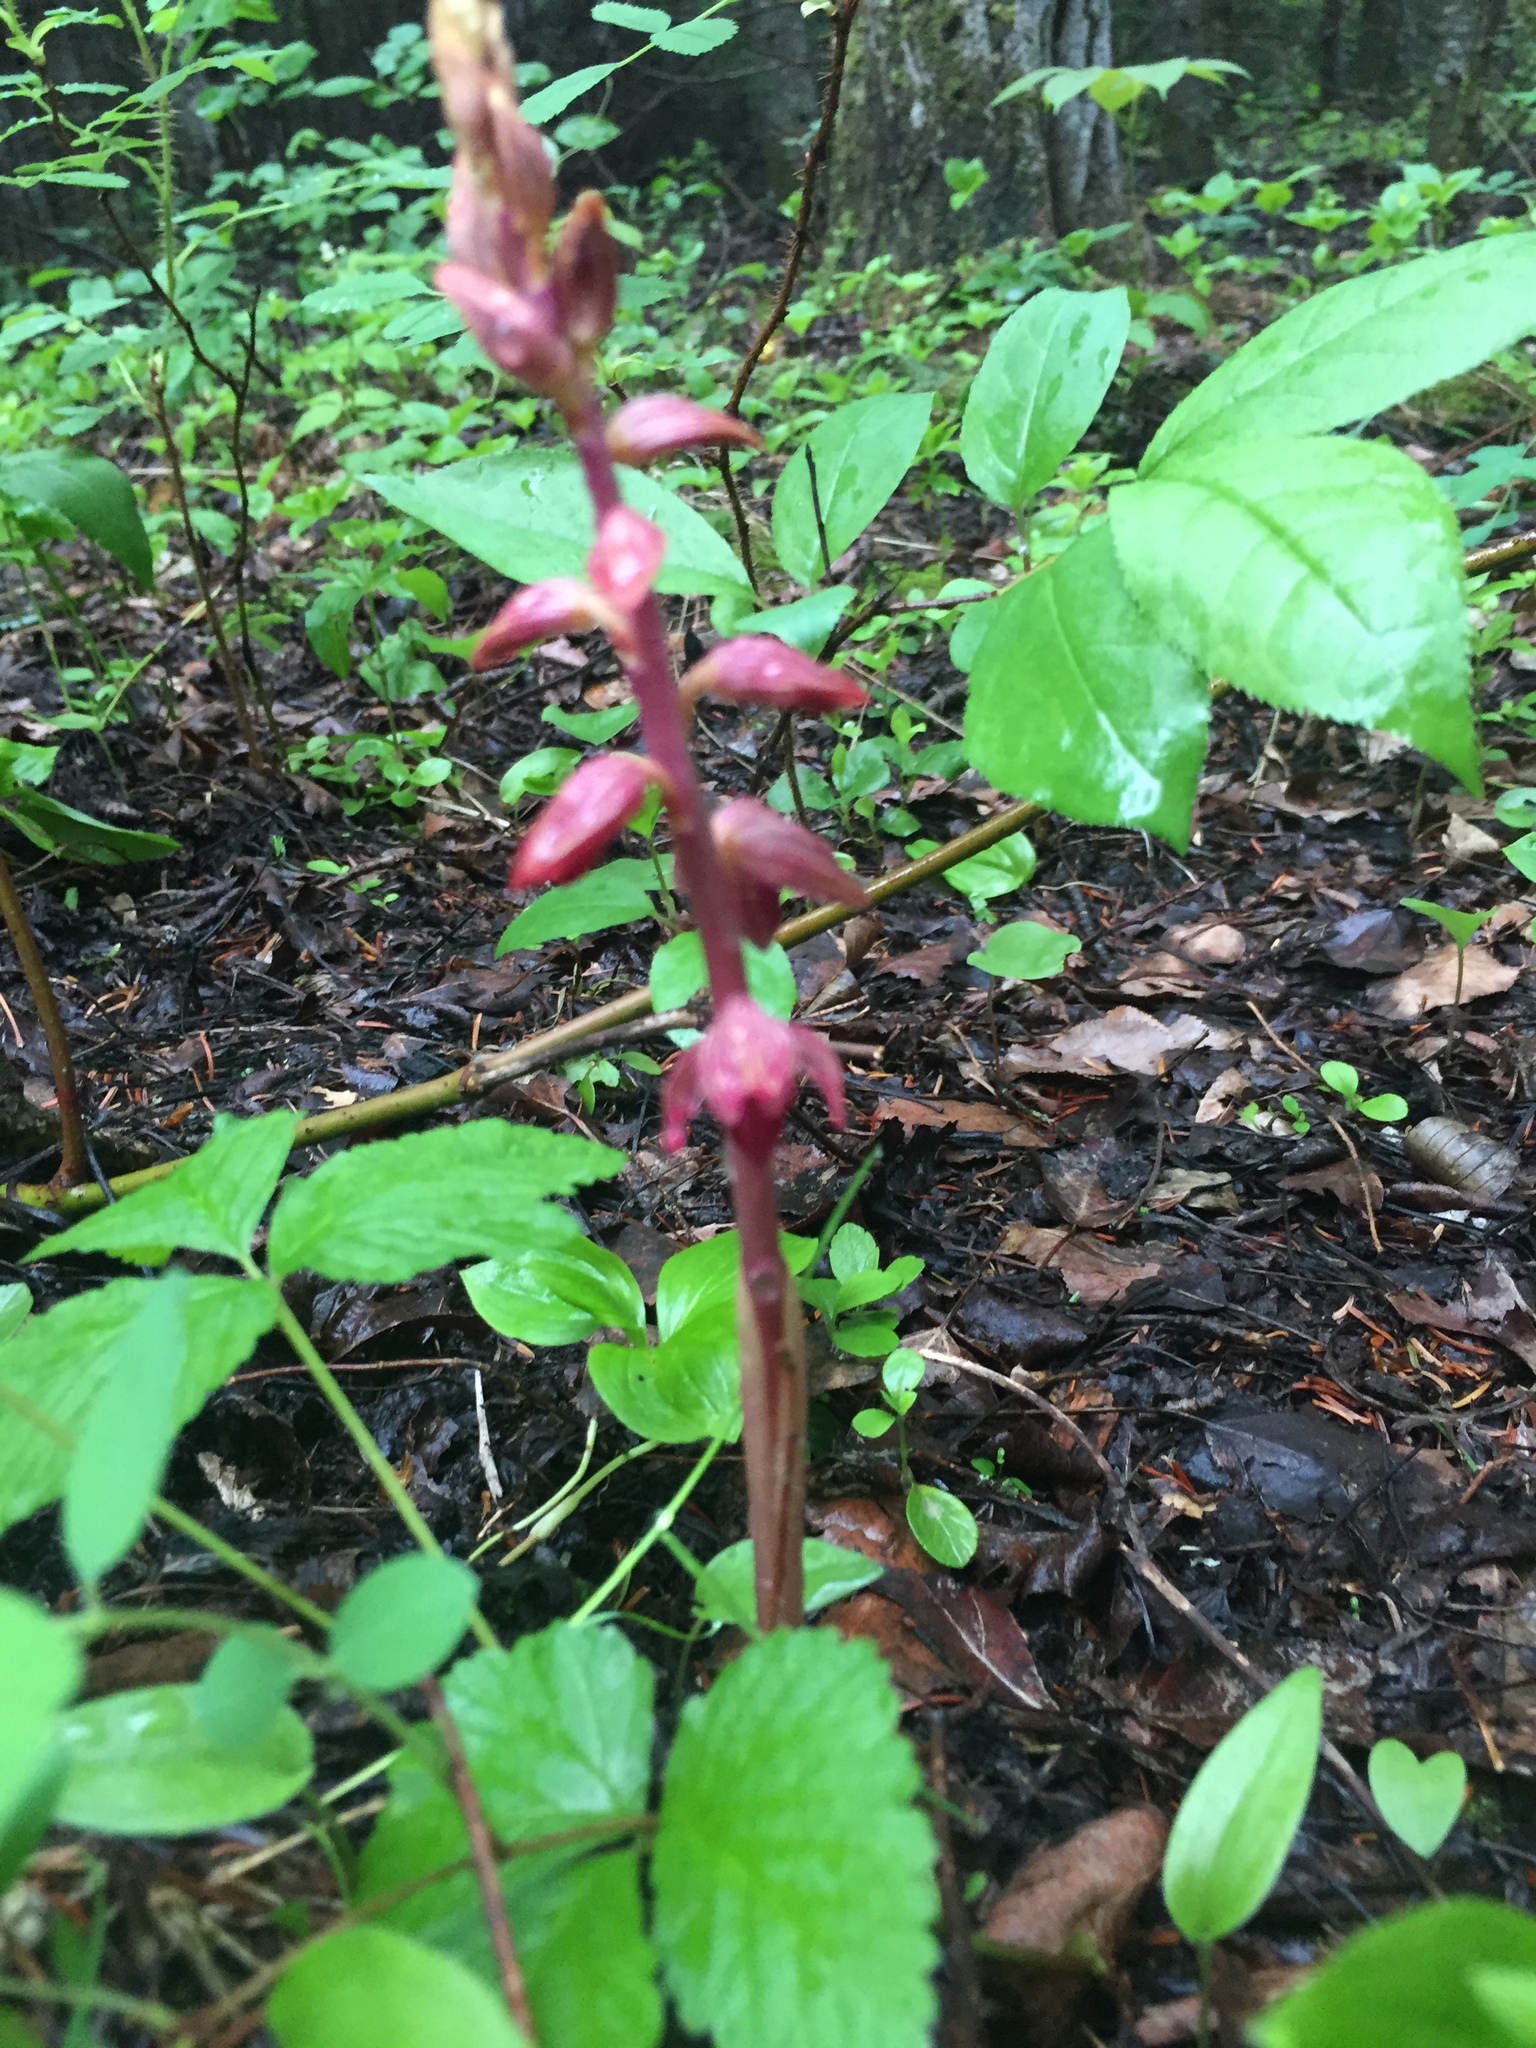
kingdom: Plantae
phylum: Tracheophyta
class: Liliopsida
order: Asparagales
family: Orchidaceae
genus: Corallorhiza
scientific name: Corallorhiza striata
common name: Hooded coralroot
